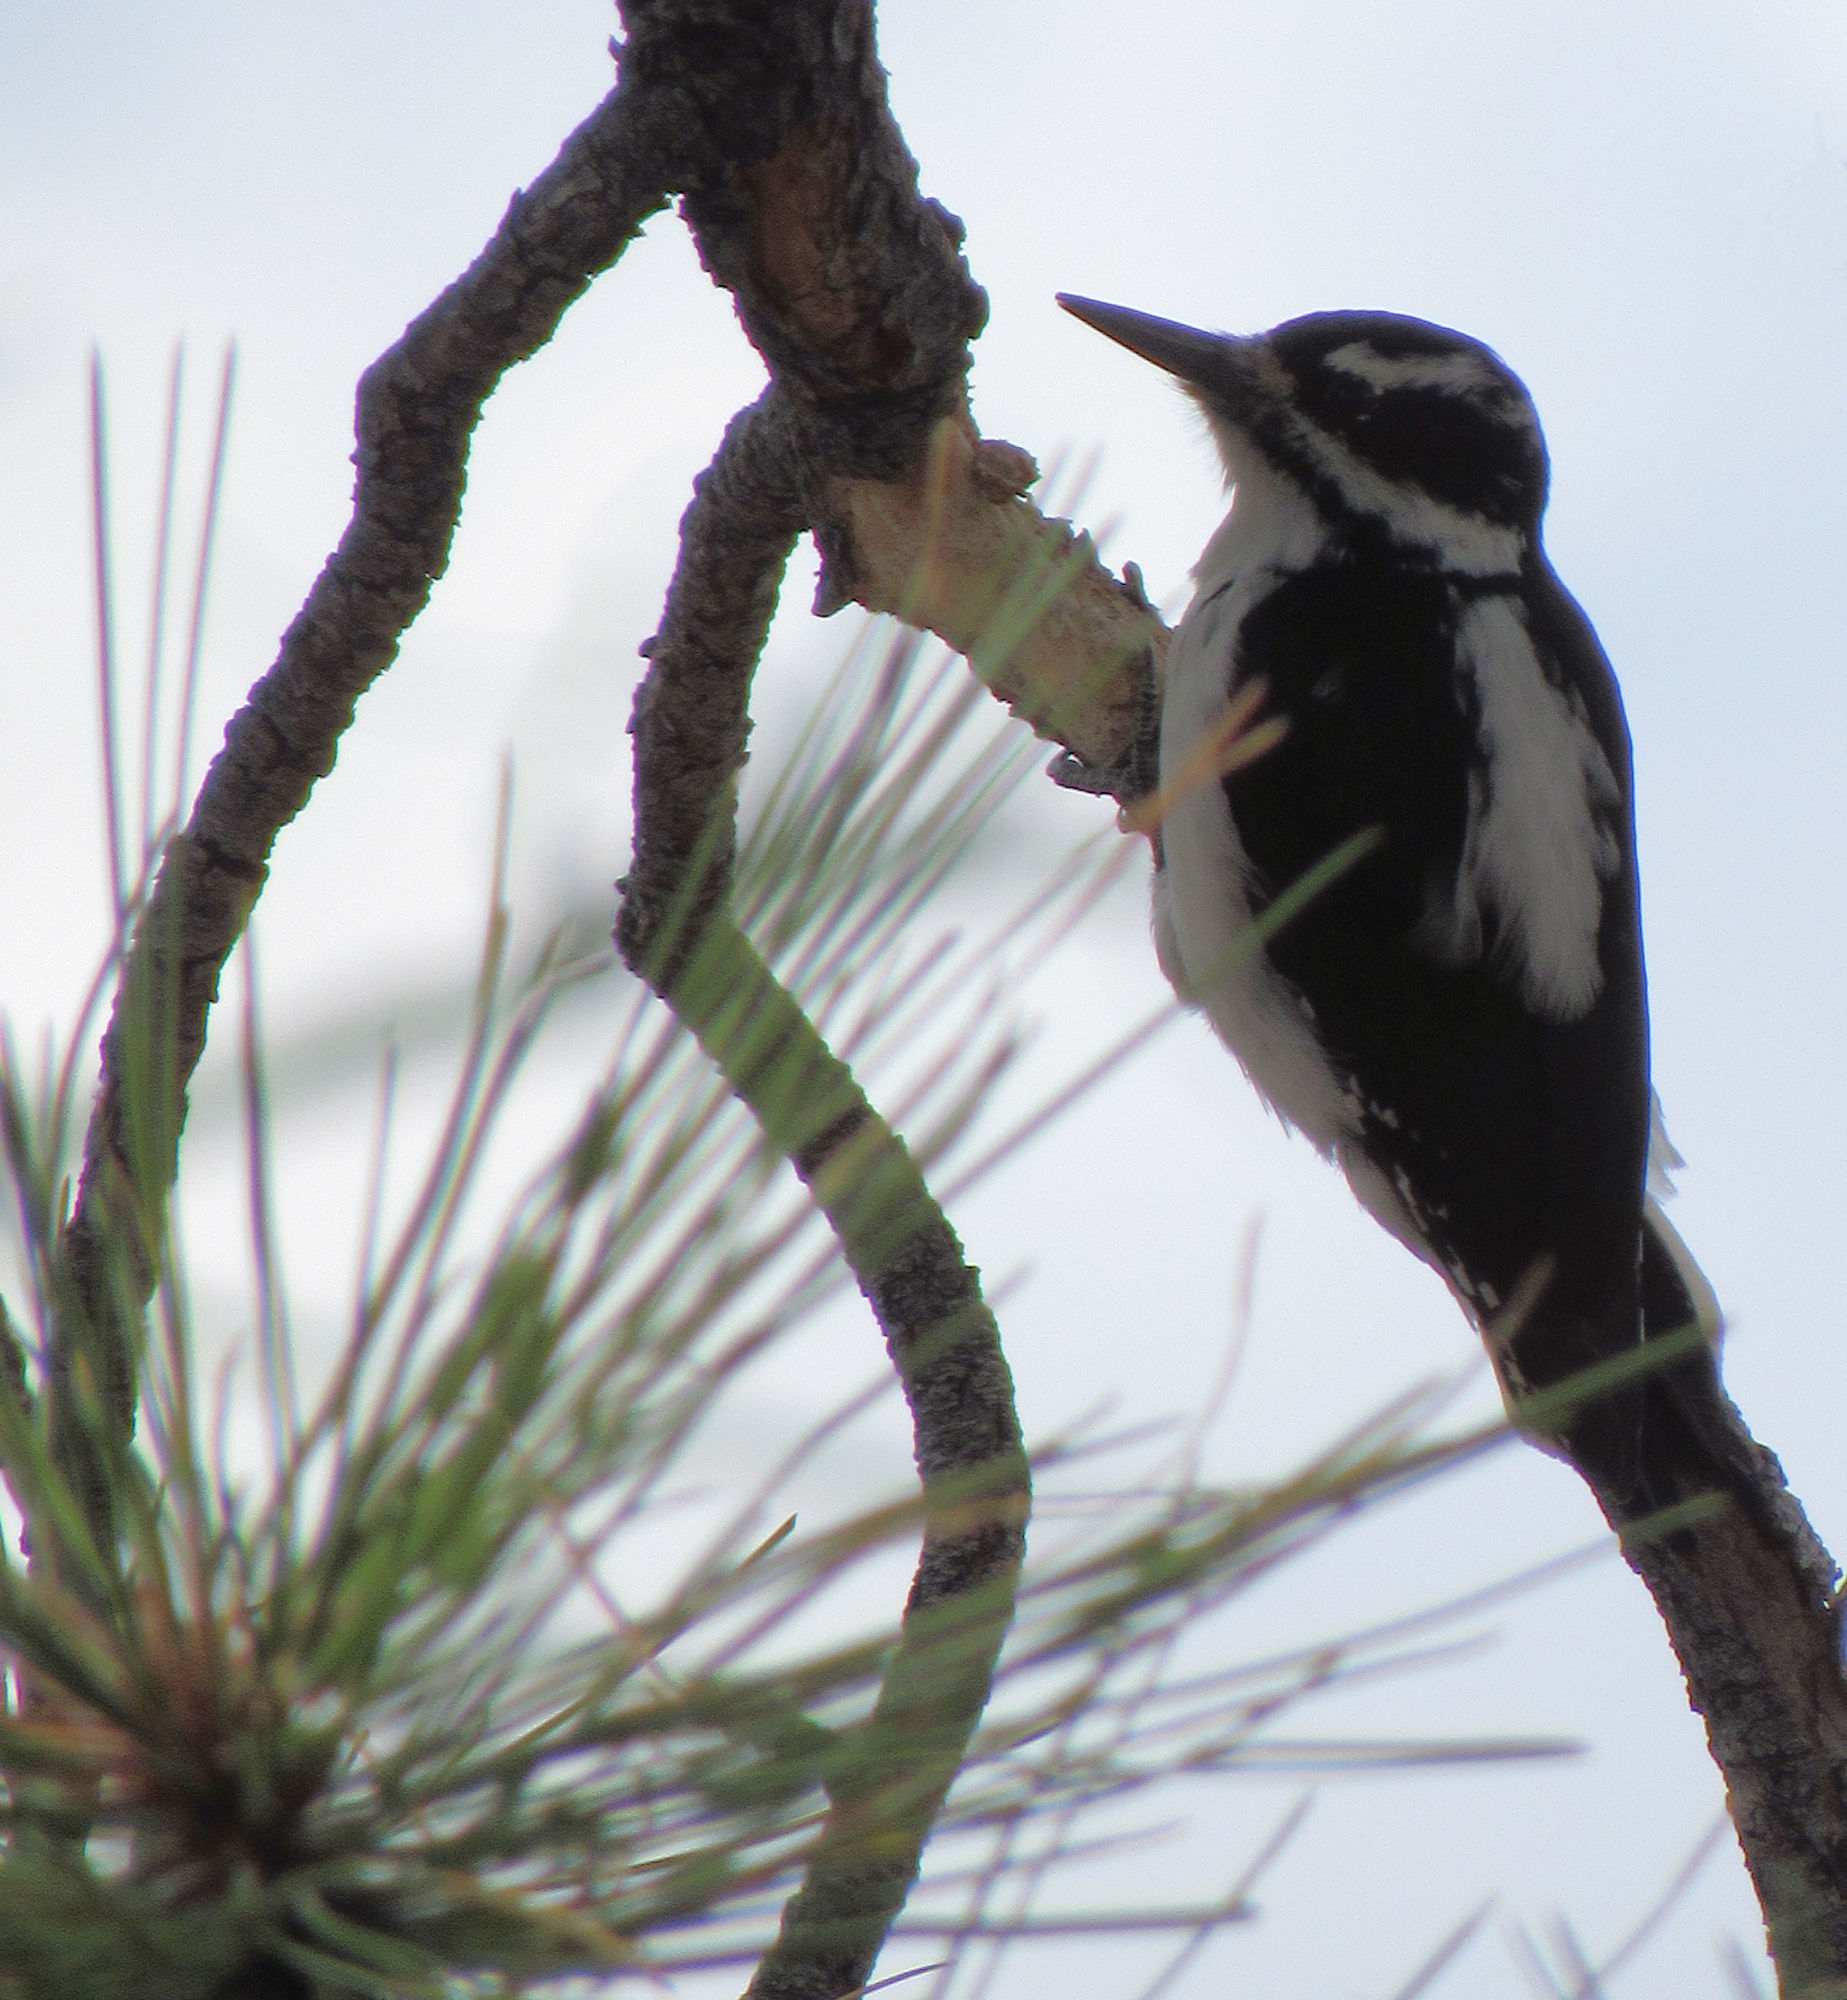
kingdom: Animalia
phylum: Chordata
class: Aves
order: Piciformes
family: Picidae
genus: Leuconotopicus
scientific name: Leuconotopicus villosus
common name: Hairy woodpecker
